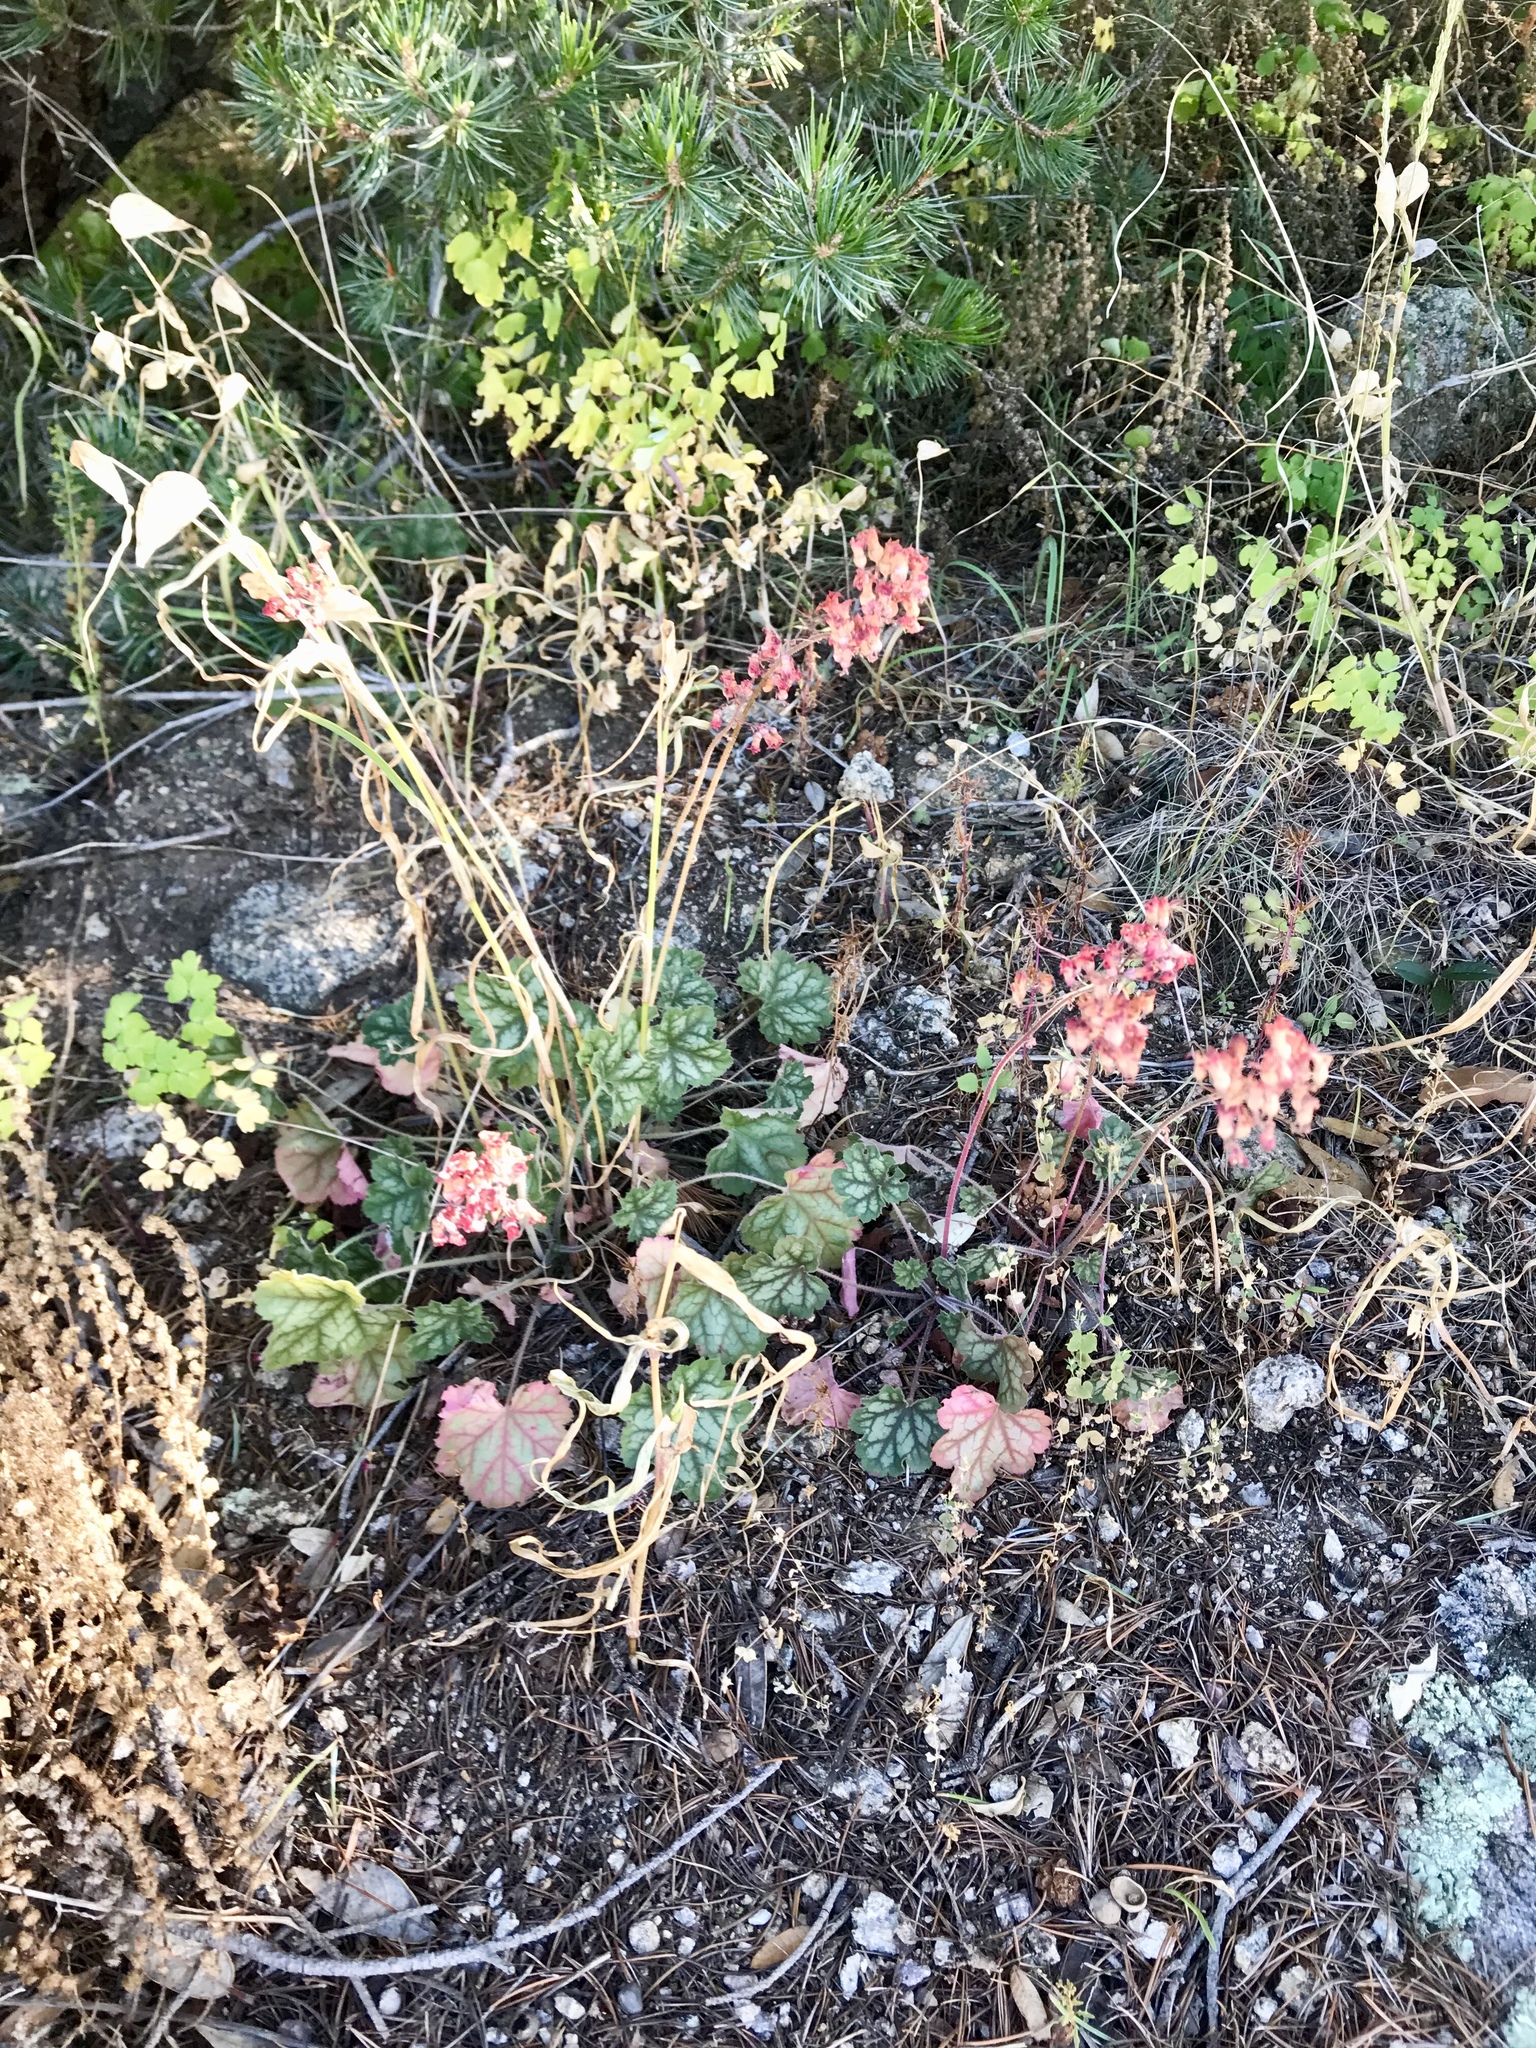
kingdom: Plantae
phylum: Tracheophyta
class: Magnoliopsida
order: Saxifragales
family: Saxifragaceae
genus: Heuchera
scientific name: Heuchera sanguinea
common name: Coralbells
